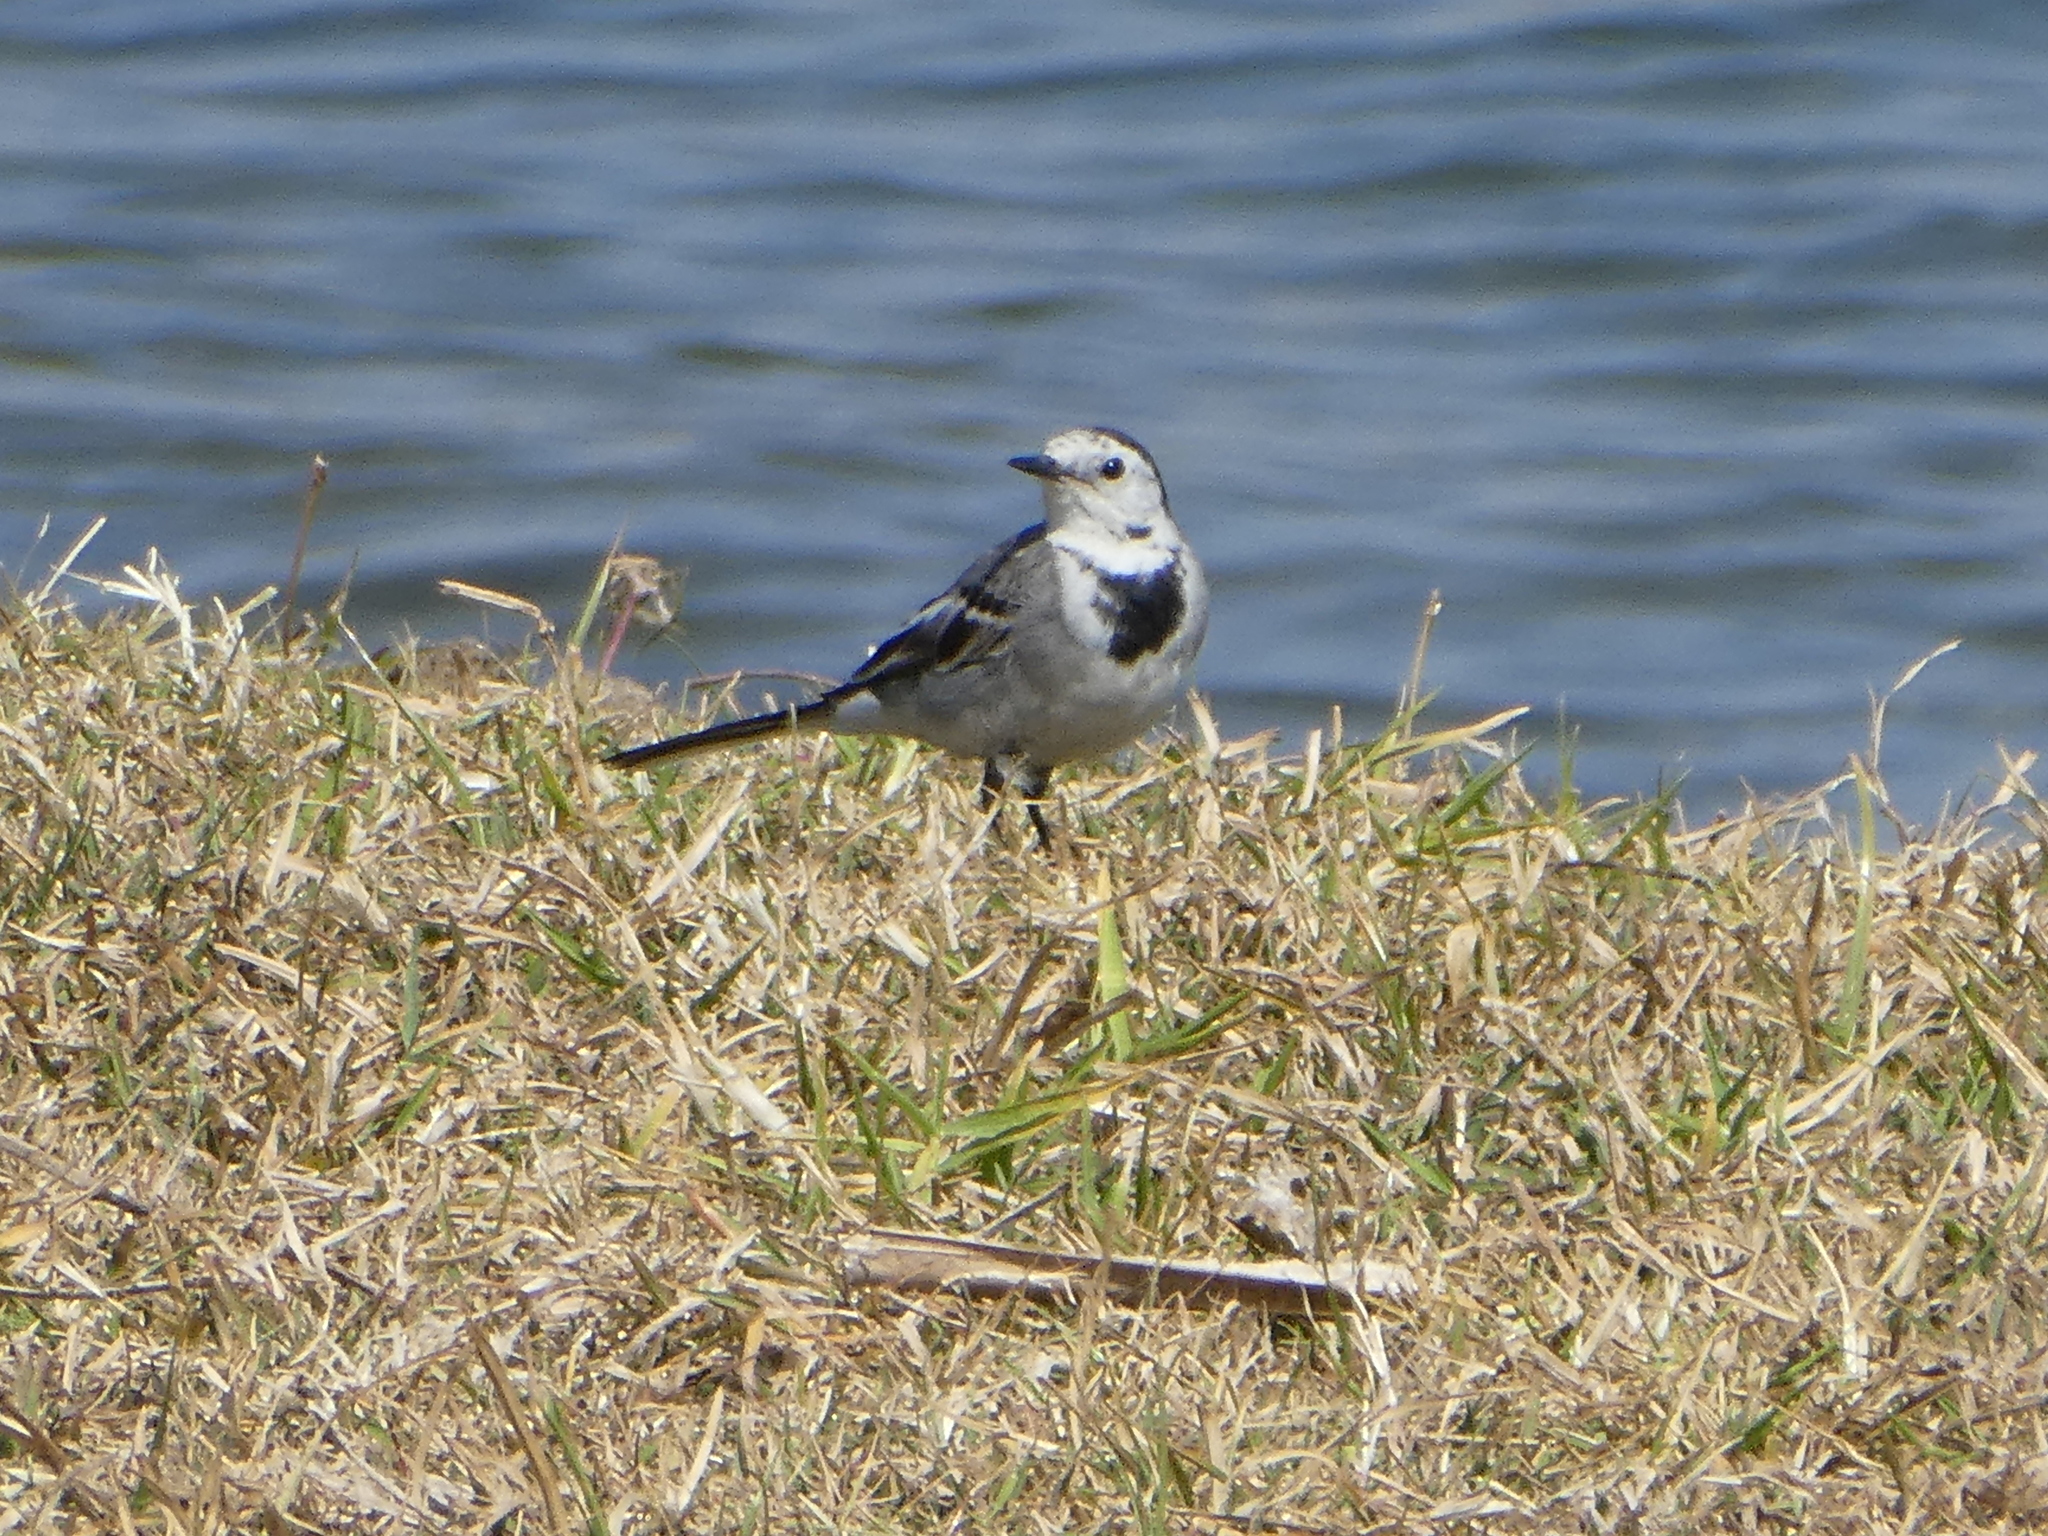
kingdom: Animalia
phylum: Chordata
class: Aves
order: Passeriformes
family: Motacillidae
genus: Motacilla
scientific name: Motacilla alba
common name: White wagtail
